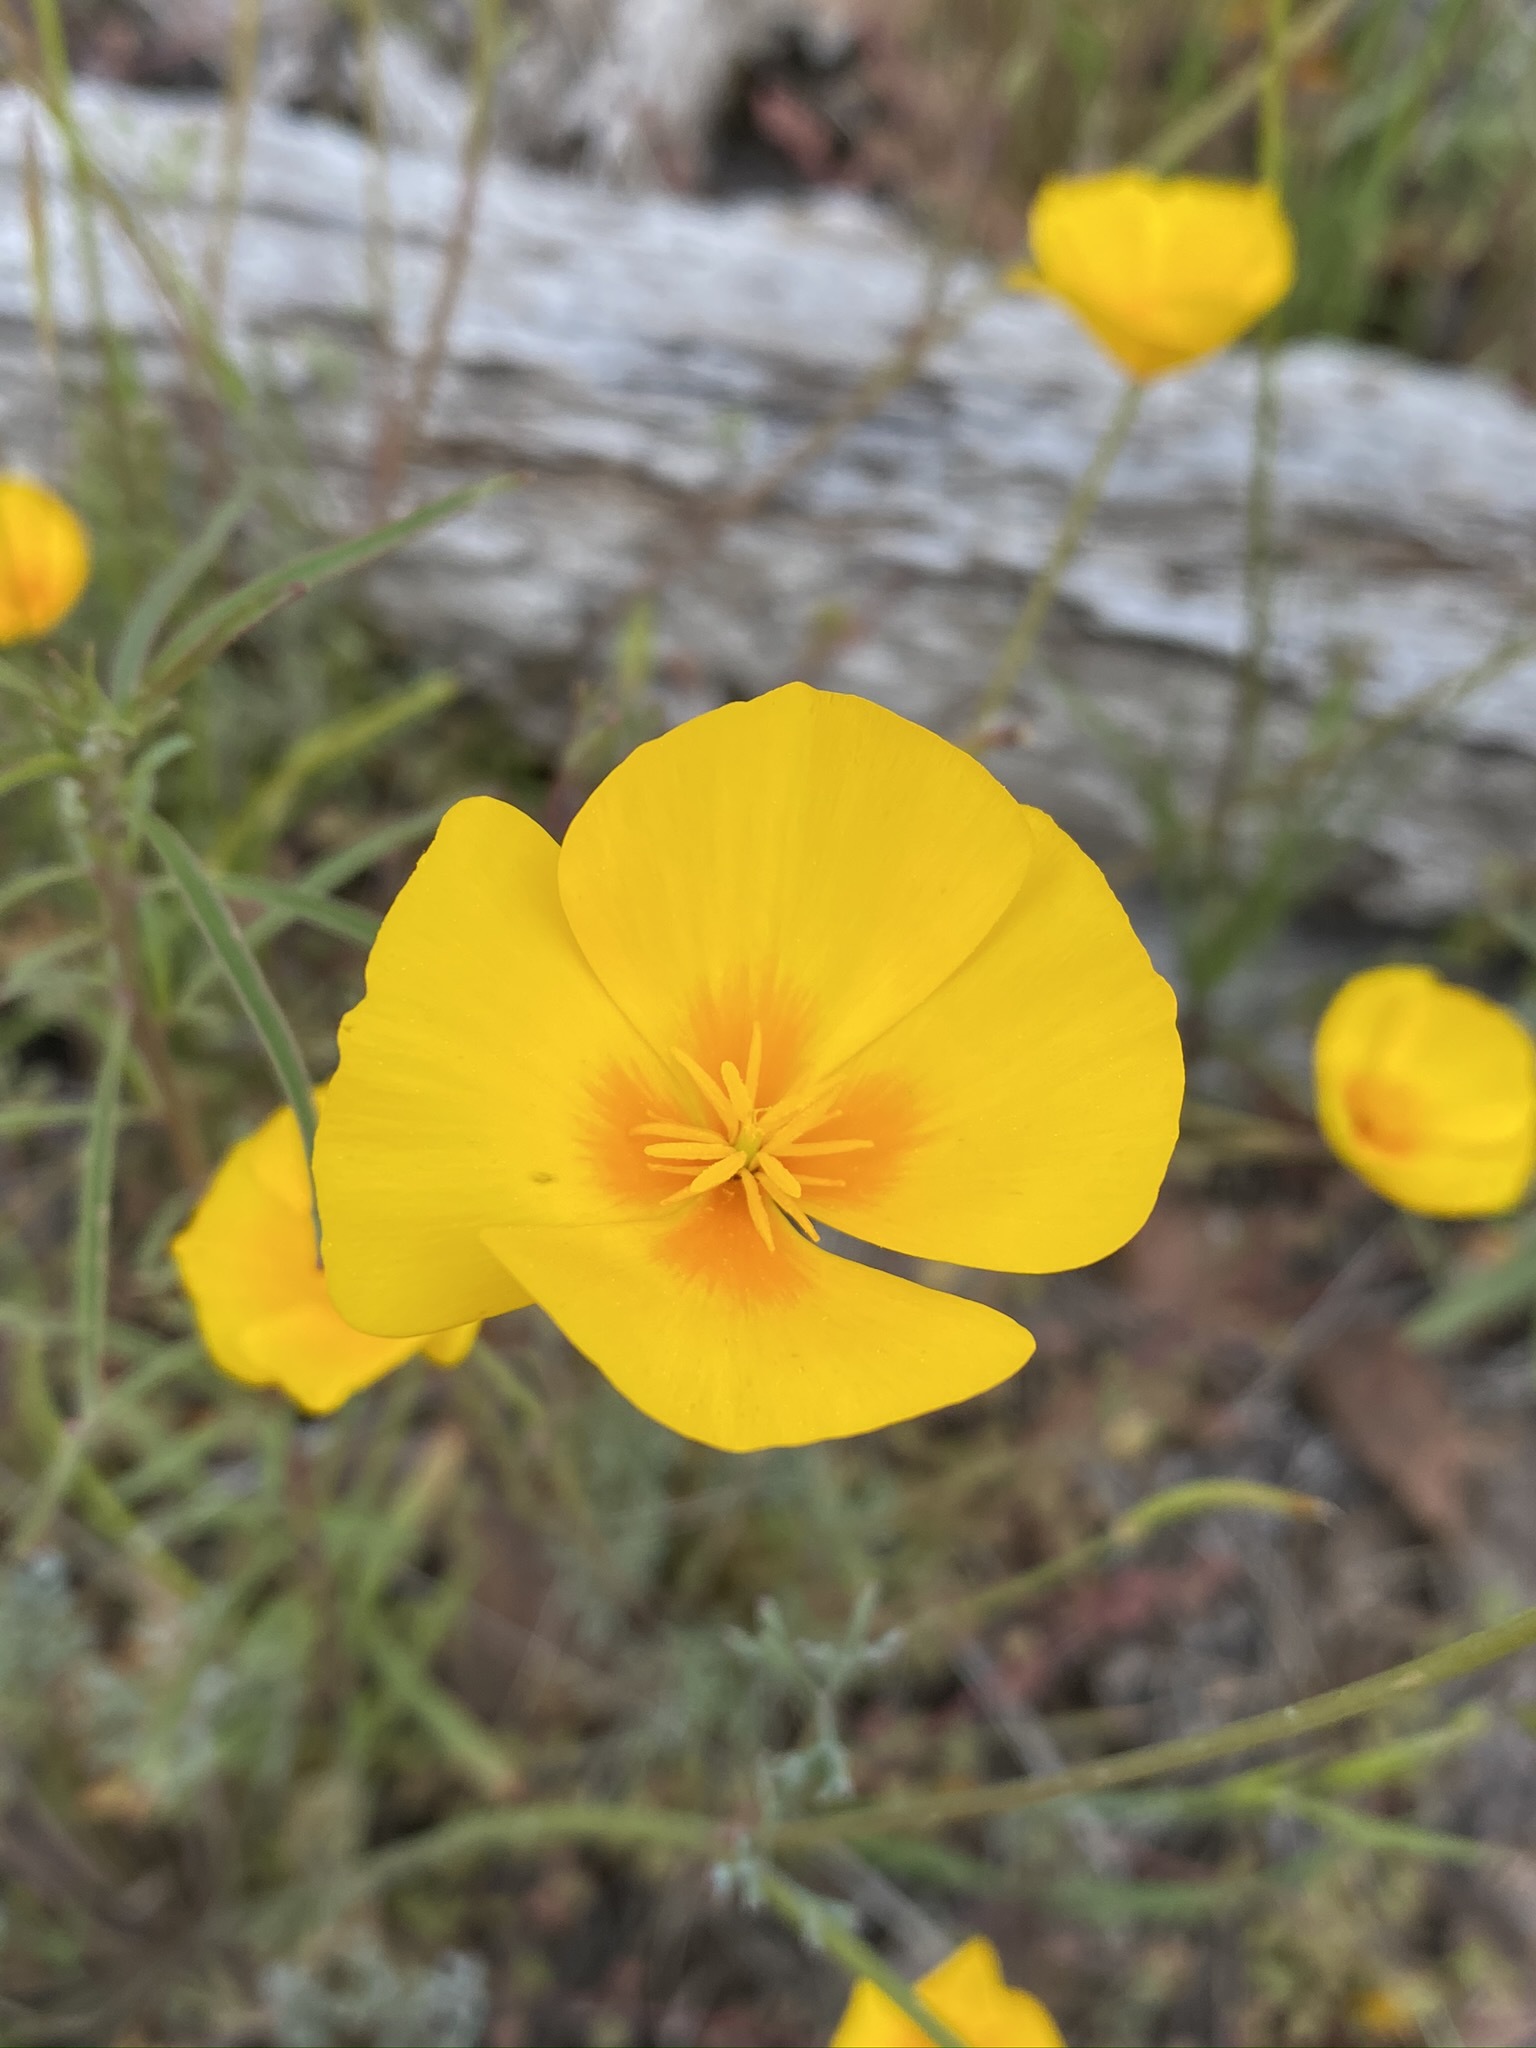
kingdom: Plantae
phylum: Tracheophyta
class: Magnoliopsida
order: Ranunculales
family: Papaveraceae
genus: Eschscholzia
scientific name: Eschscholzia caespitosa
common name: Tufted california-poppy
